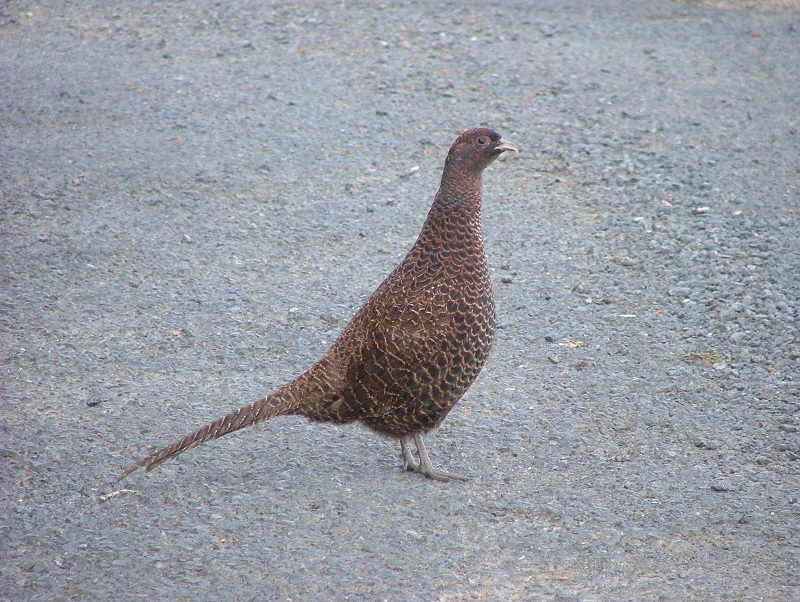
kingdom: Animalia
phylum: Chordata
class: Aves
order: Galliformes
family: Phasianidae
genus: Phasianus
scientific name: Phasianus colchicus
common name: Common pheasant
